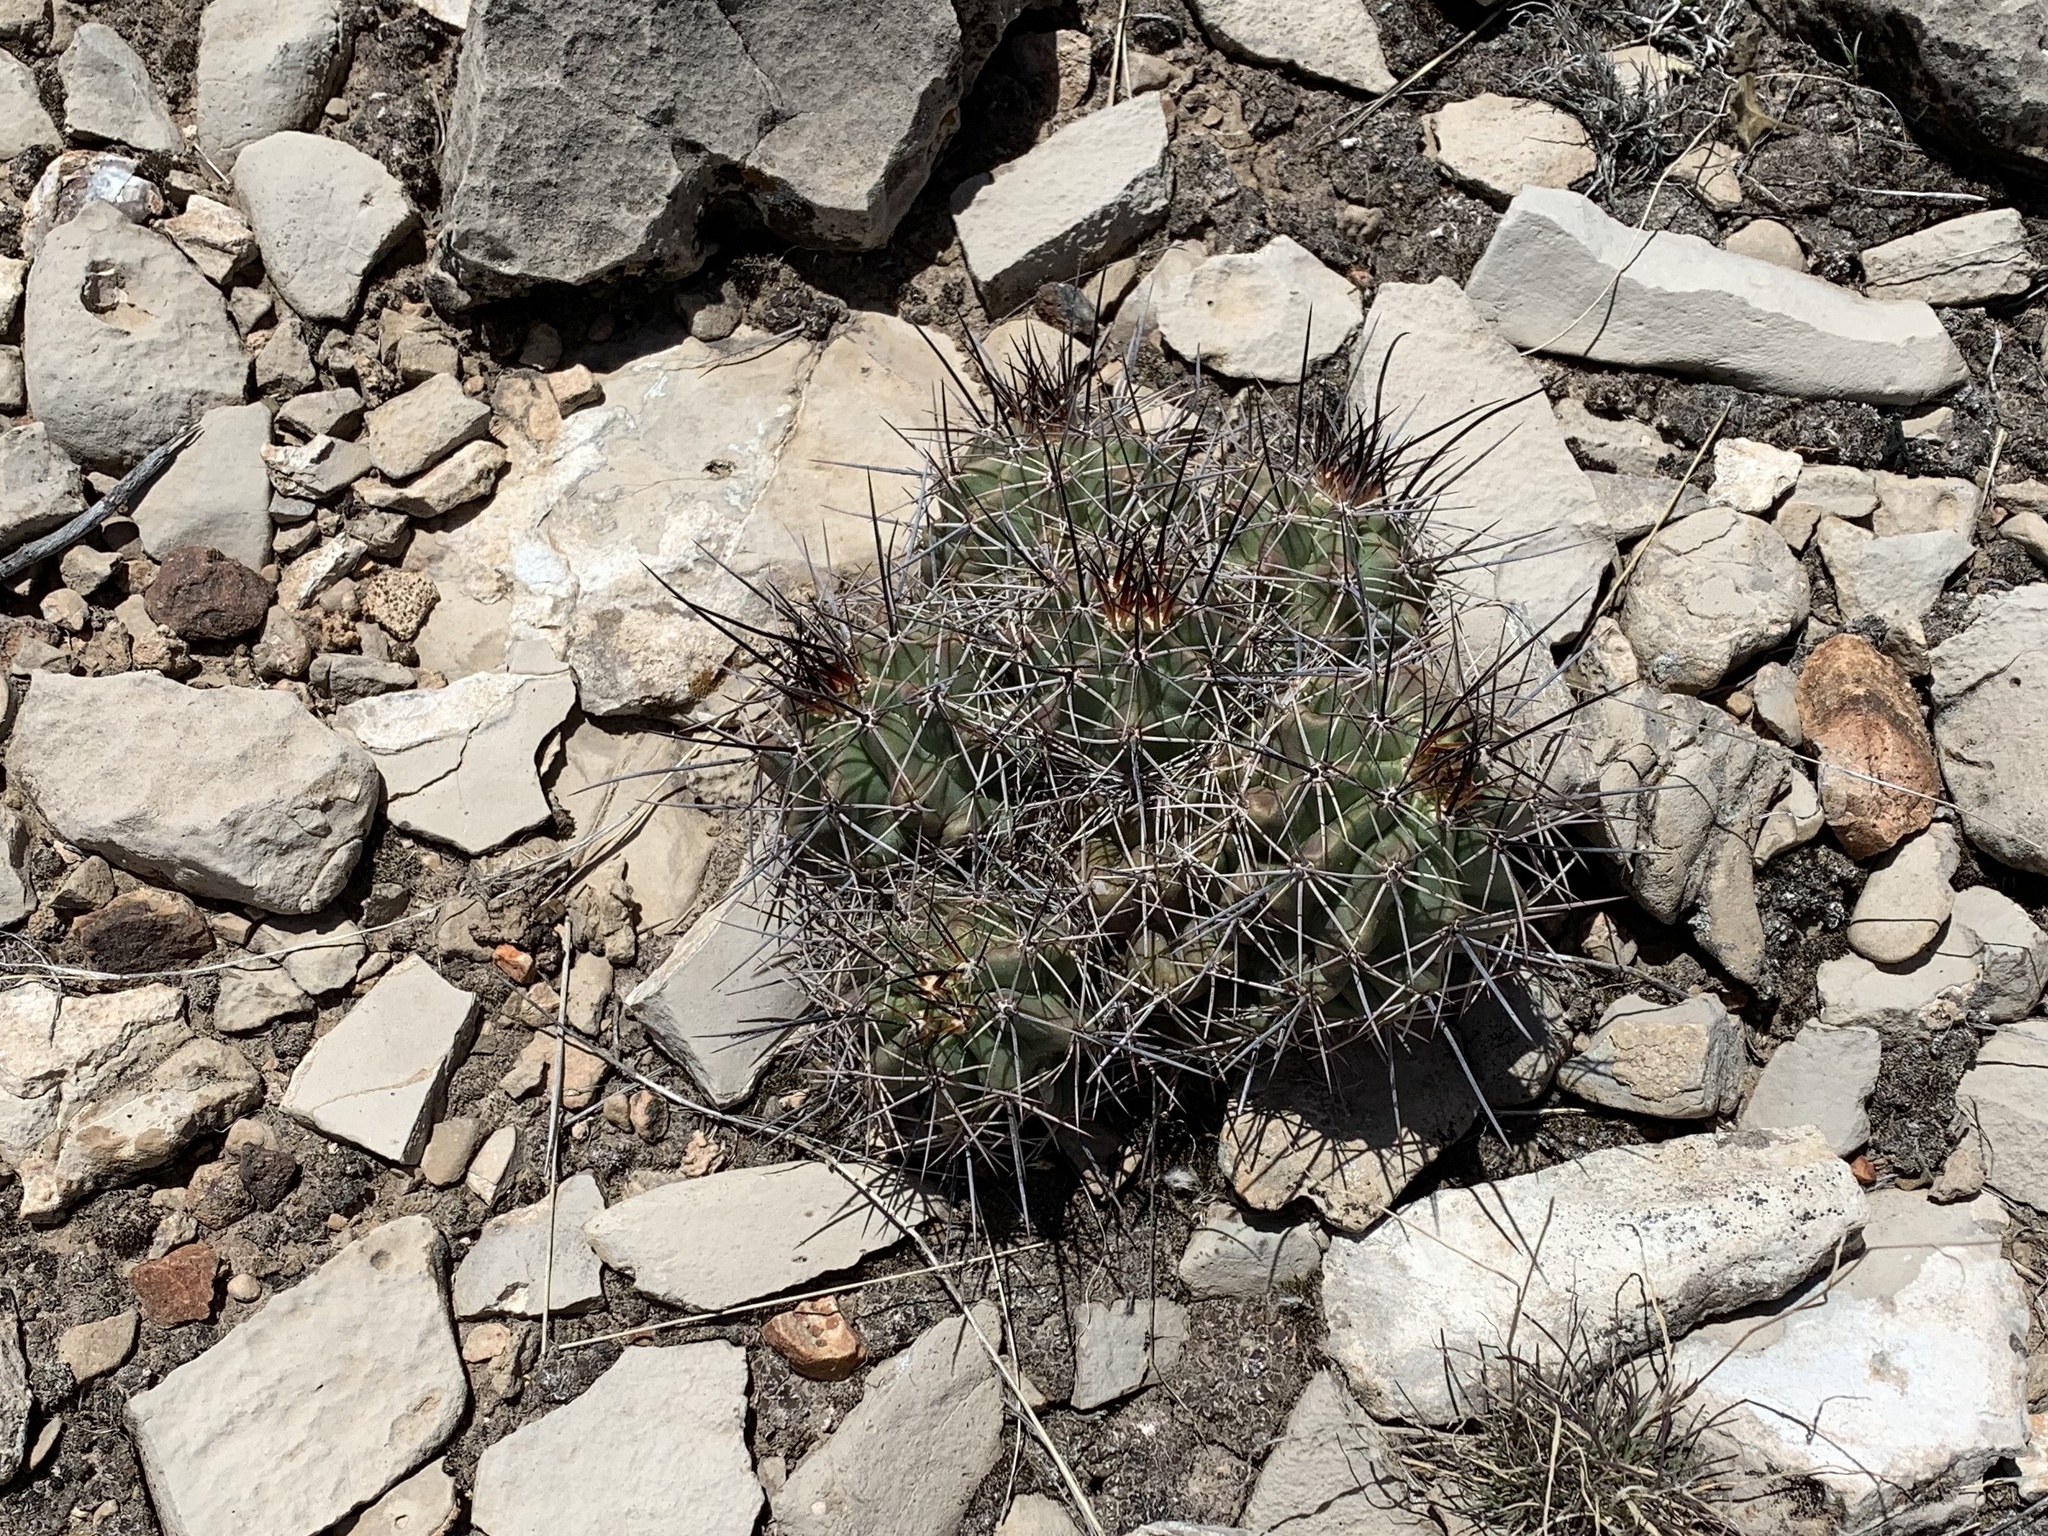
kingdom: Plantae
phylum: Tracheophyta
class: Magnoliopsida
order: Caryophyllales
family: Cactaceae
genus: Echinocereus
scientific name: Echinocereus coccineus
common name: Scarlet hedgehog cactus
